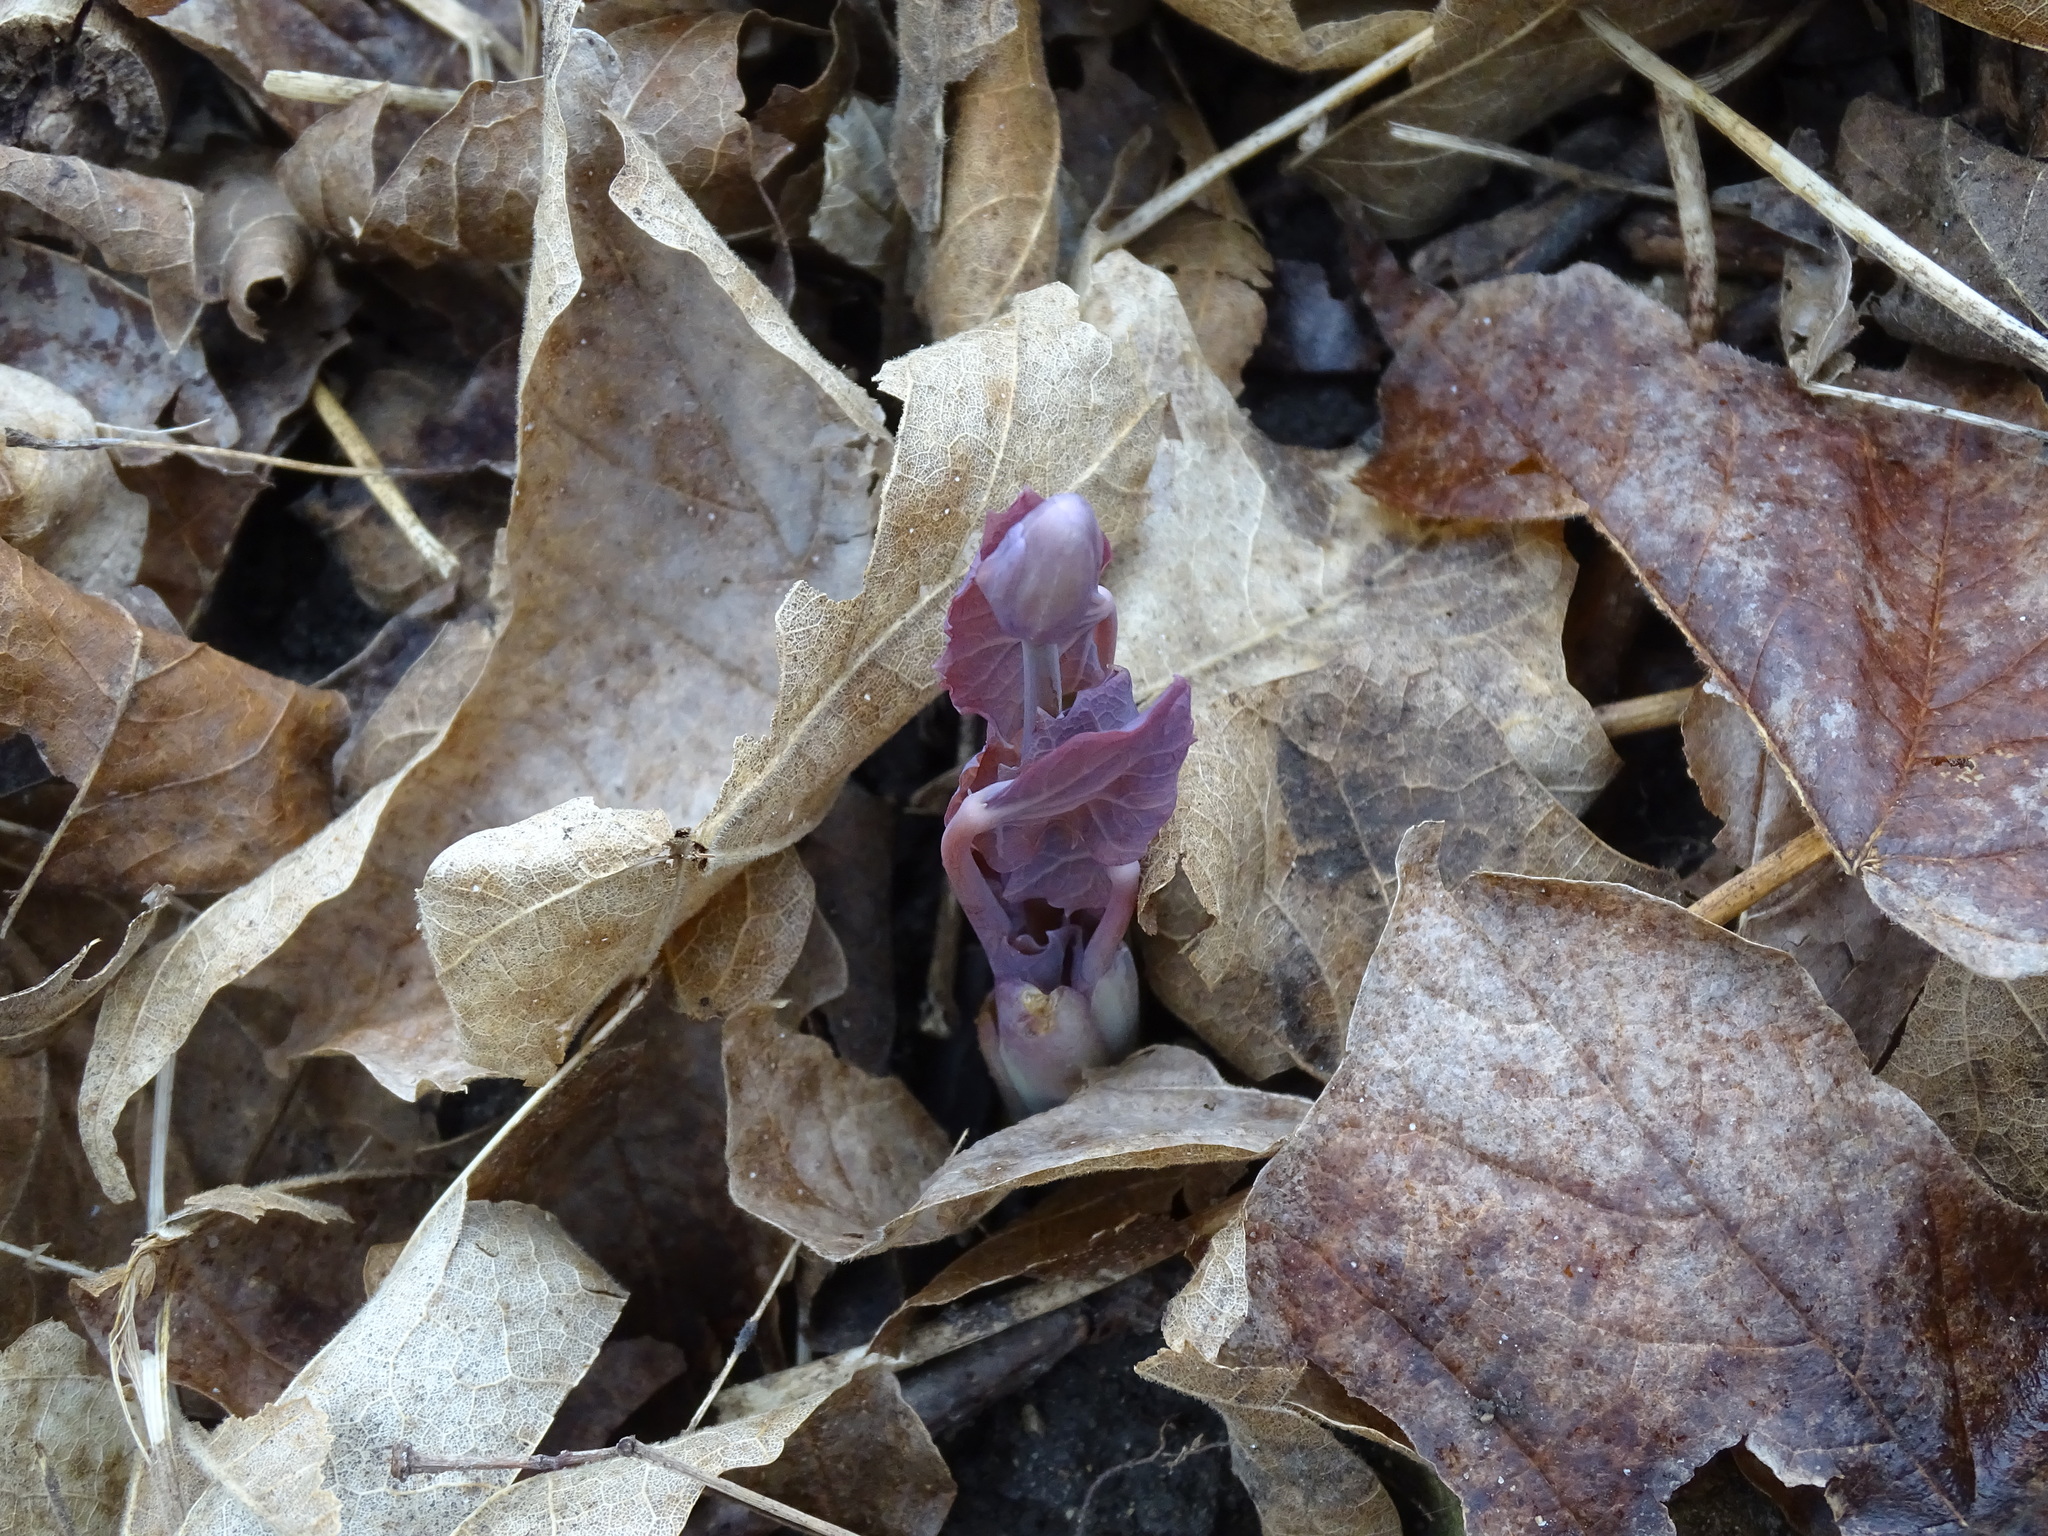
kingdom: Plantae
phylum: Tracheophyta
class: Magnoliopsida
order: Ranunculales
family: Berberidaceae
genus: Jeffersonia
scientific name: Jeffersonia diphylla
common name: Rheumatism-root
